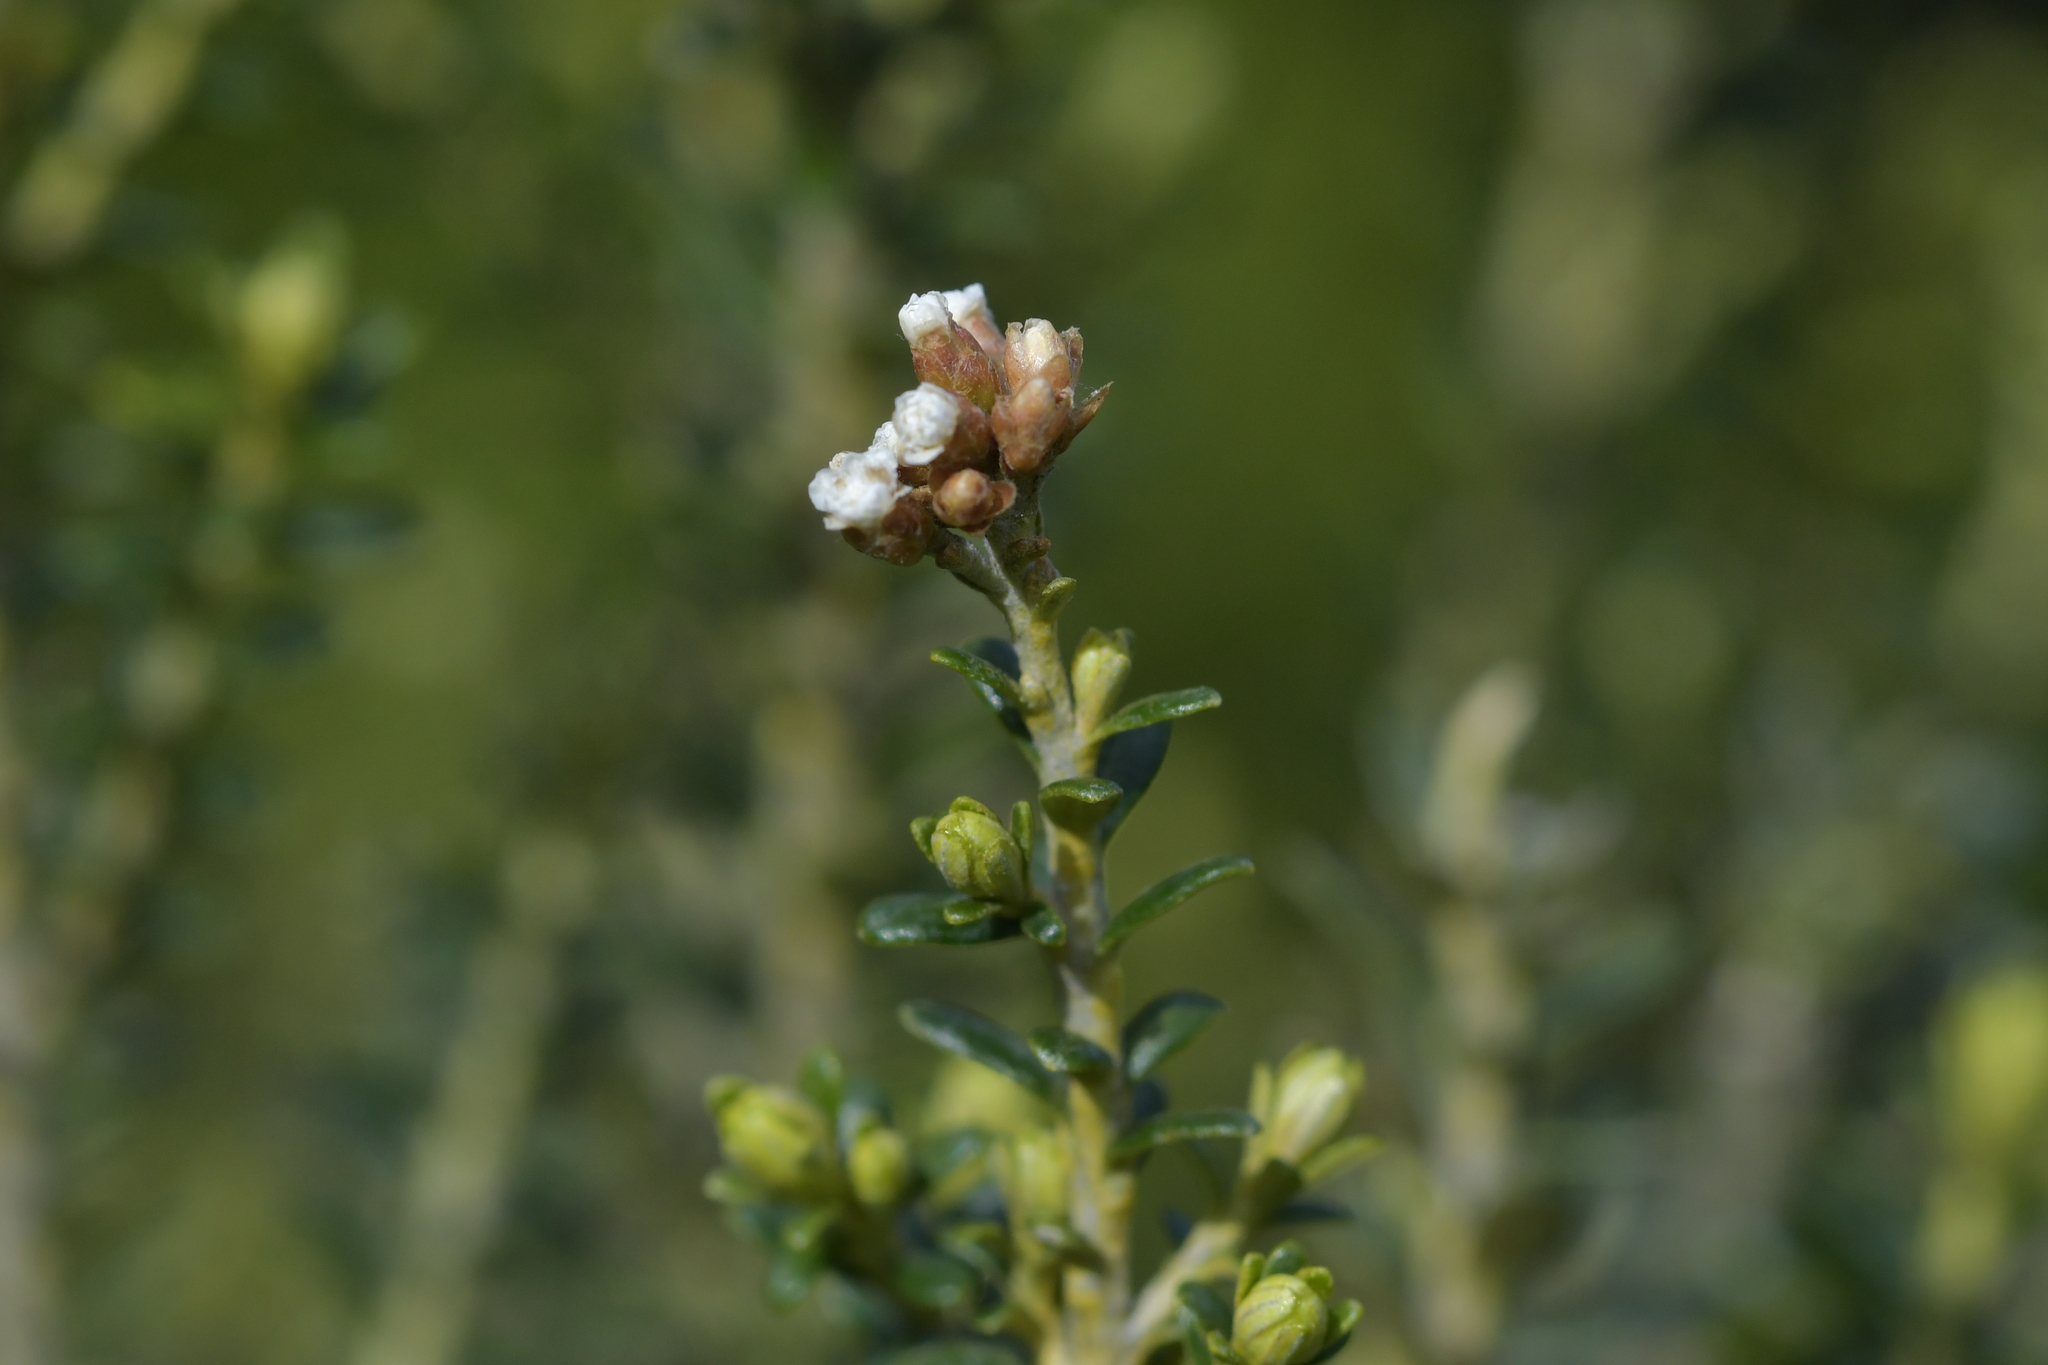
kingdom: Plantae
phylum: Tracheophyta
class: Magnoliopsida
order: Asterales
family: Asteraceae
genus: Ozothamnus
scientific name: Ozothamnus leptophyllus
